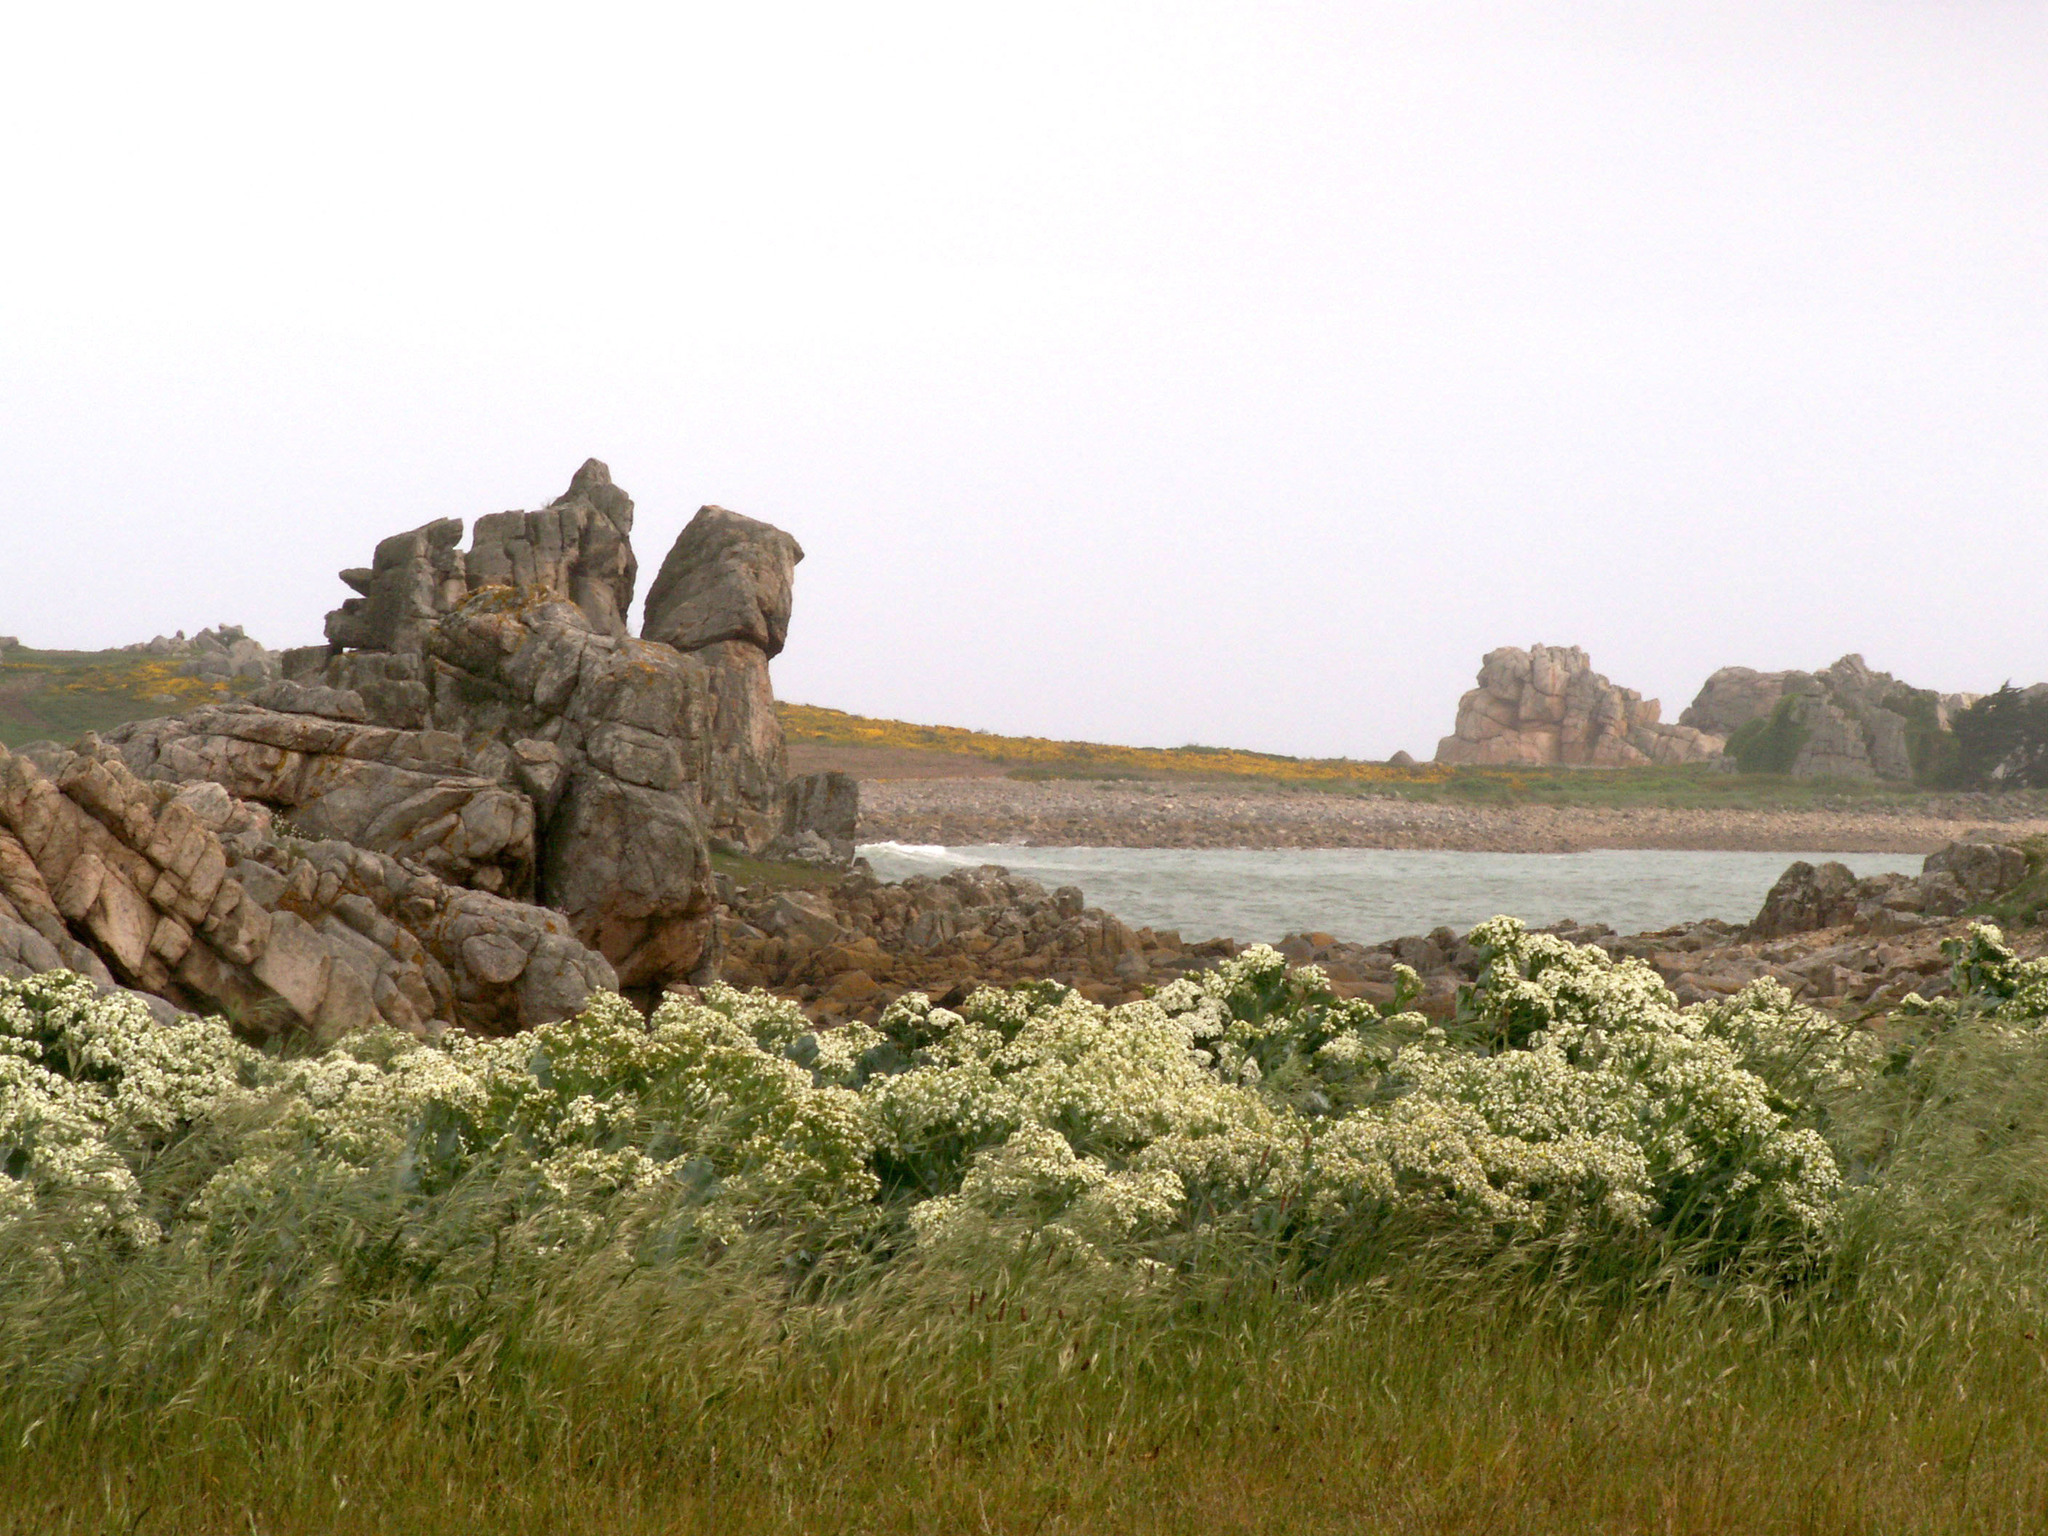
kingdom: Plantae
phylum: Tracheophyta
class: Magnoliopsida
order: Brassicales
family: Brassicaceae
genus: Crambe
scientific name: Crambe maritima
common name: Sea-kale
